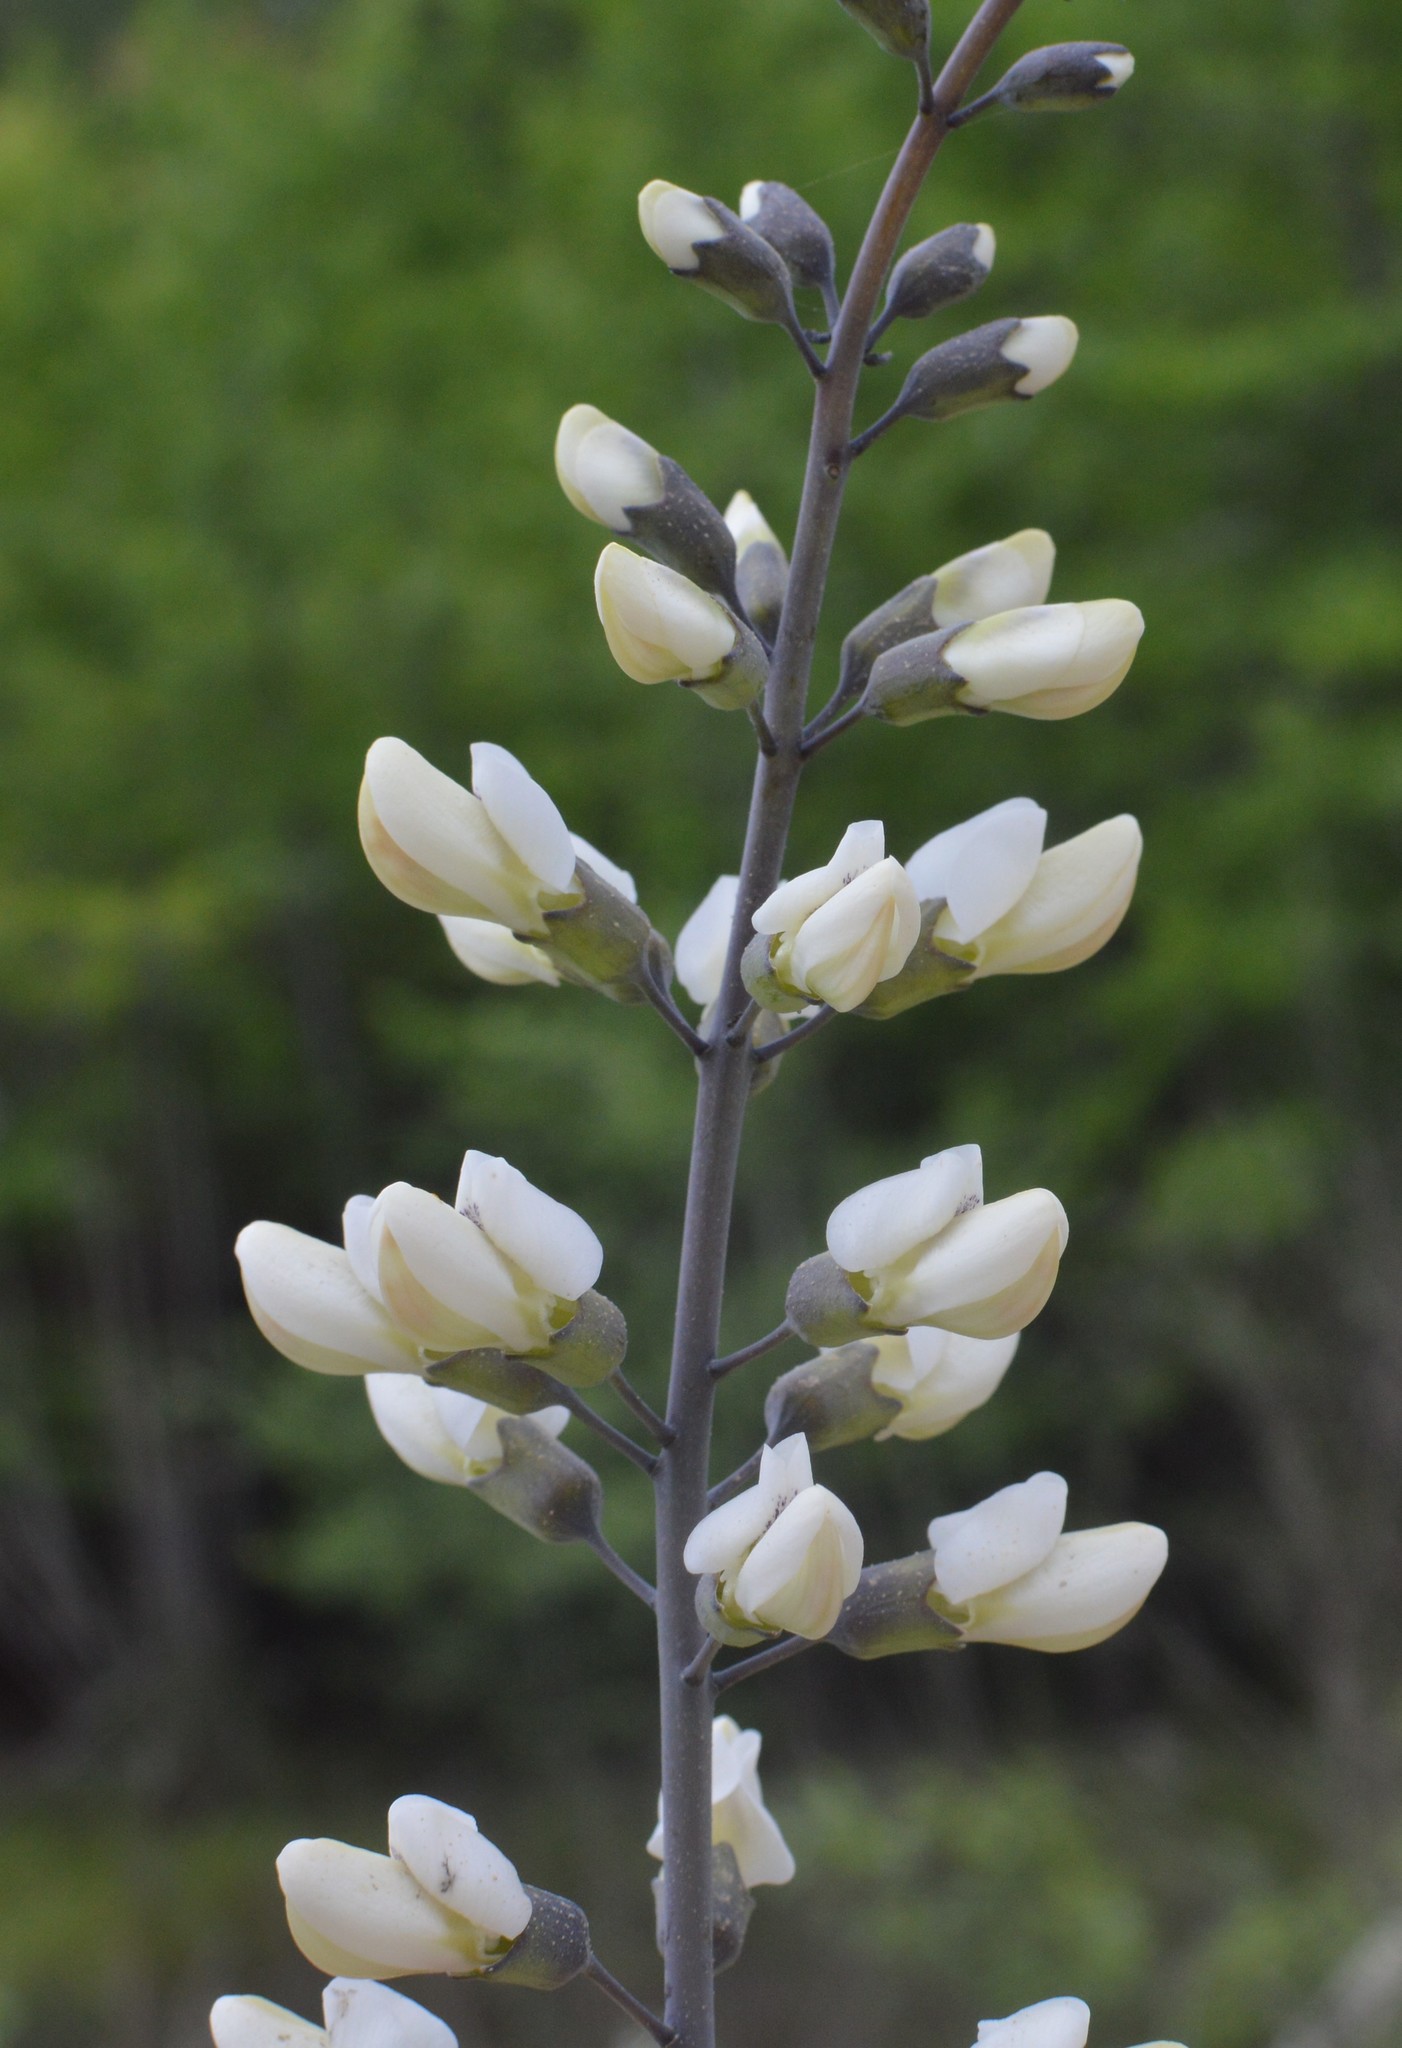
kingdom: Plantae
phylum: Tracheophyta
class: Magnoliopsida
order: Fabales
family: Fabaceae
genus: Baptisia
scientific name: Baptisia alba
